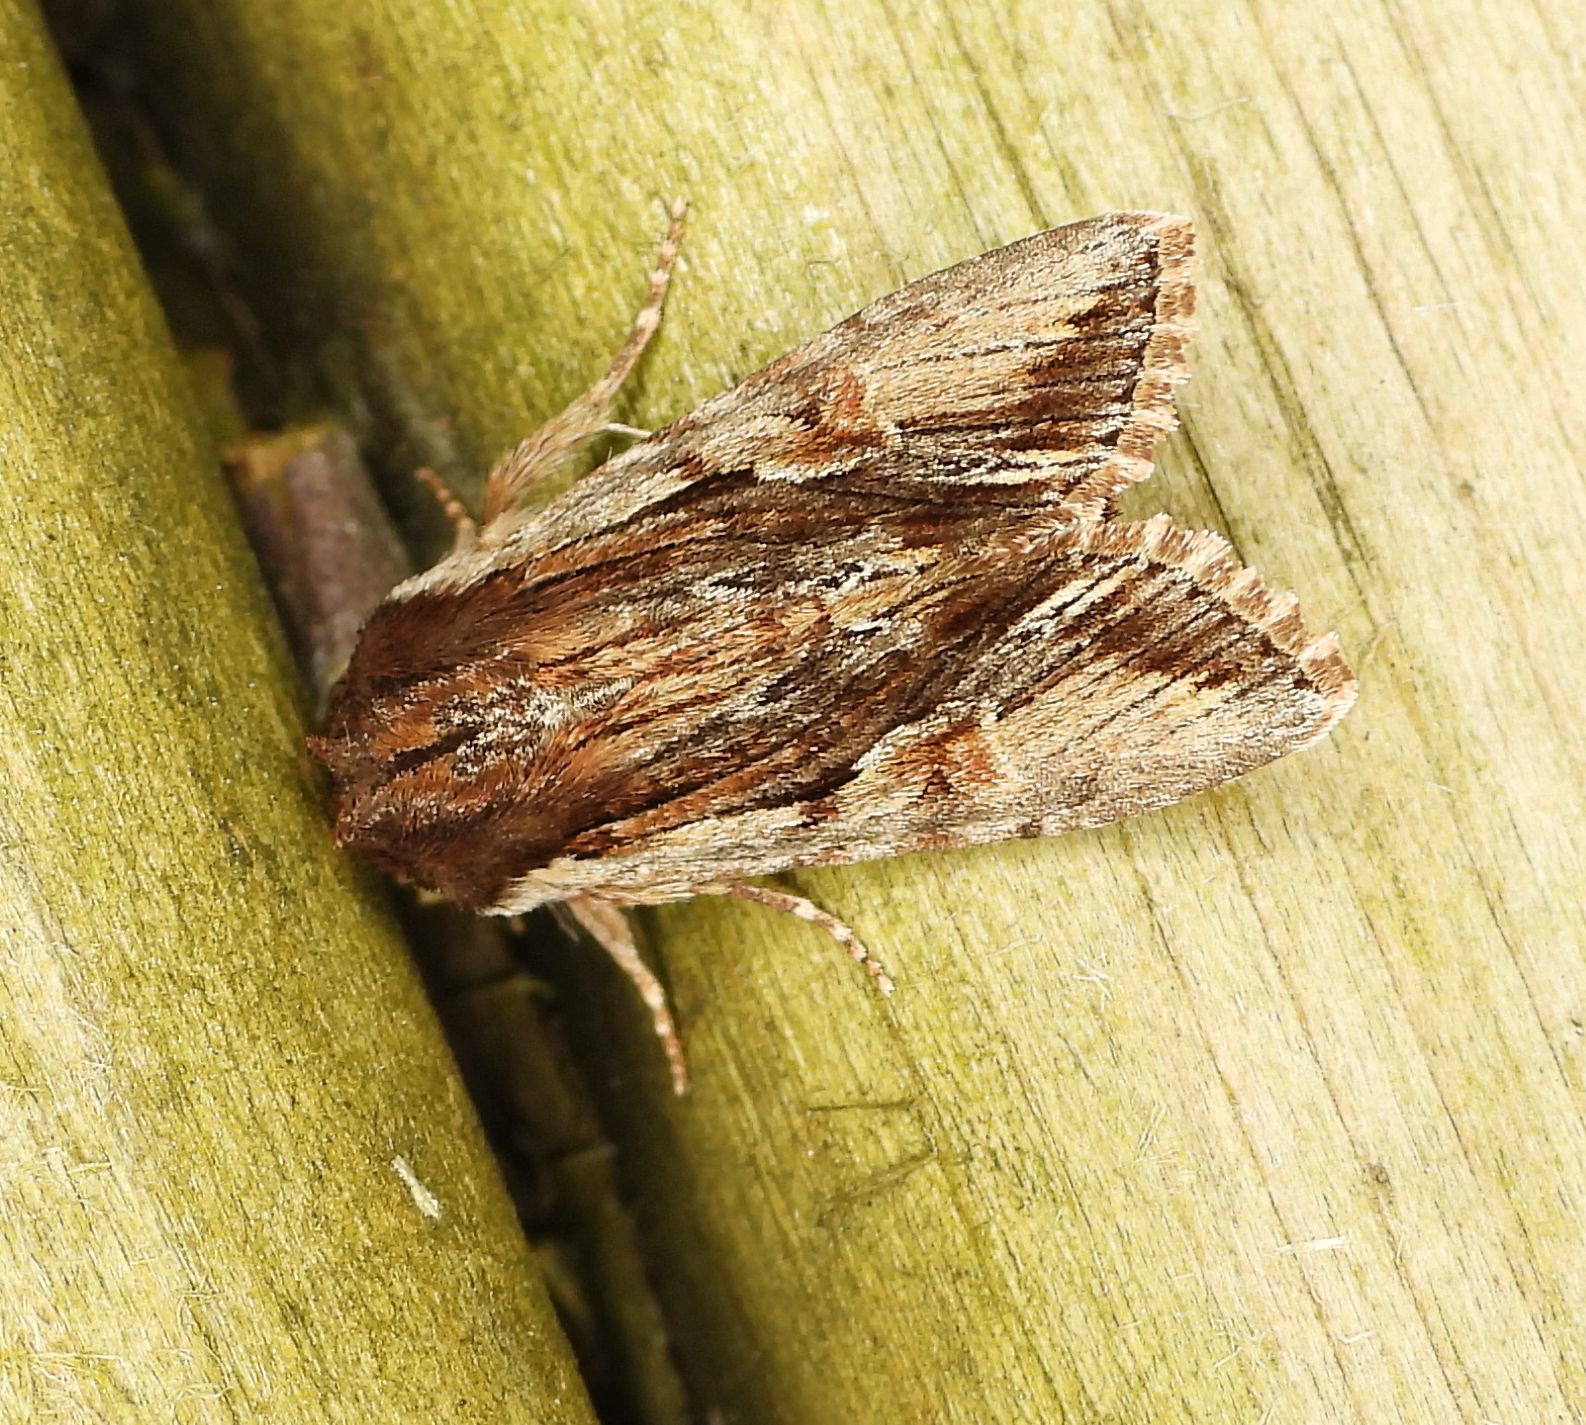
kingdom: Animalia
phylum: Arthropoda
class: Insecta
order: Lepidoptera
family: Noctuidae
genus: Achatia
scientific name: Achatia evicta
